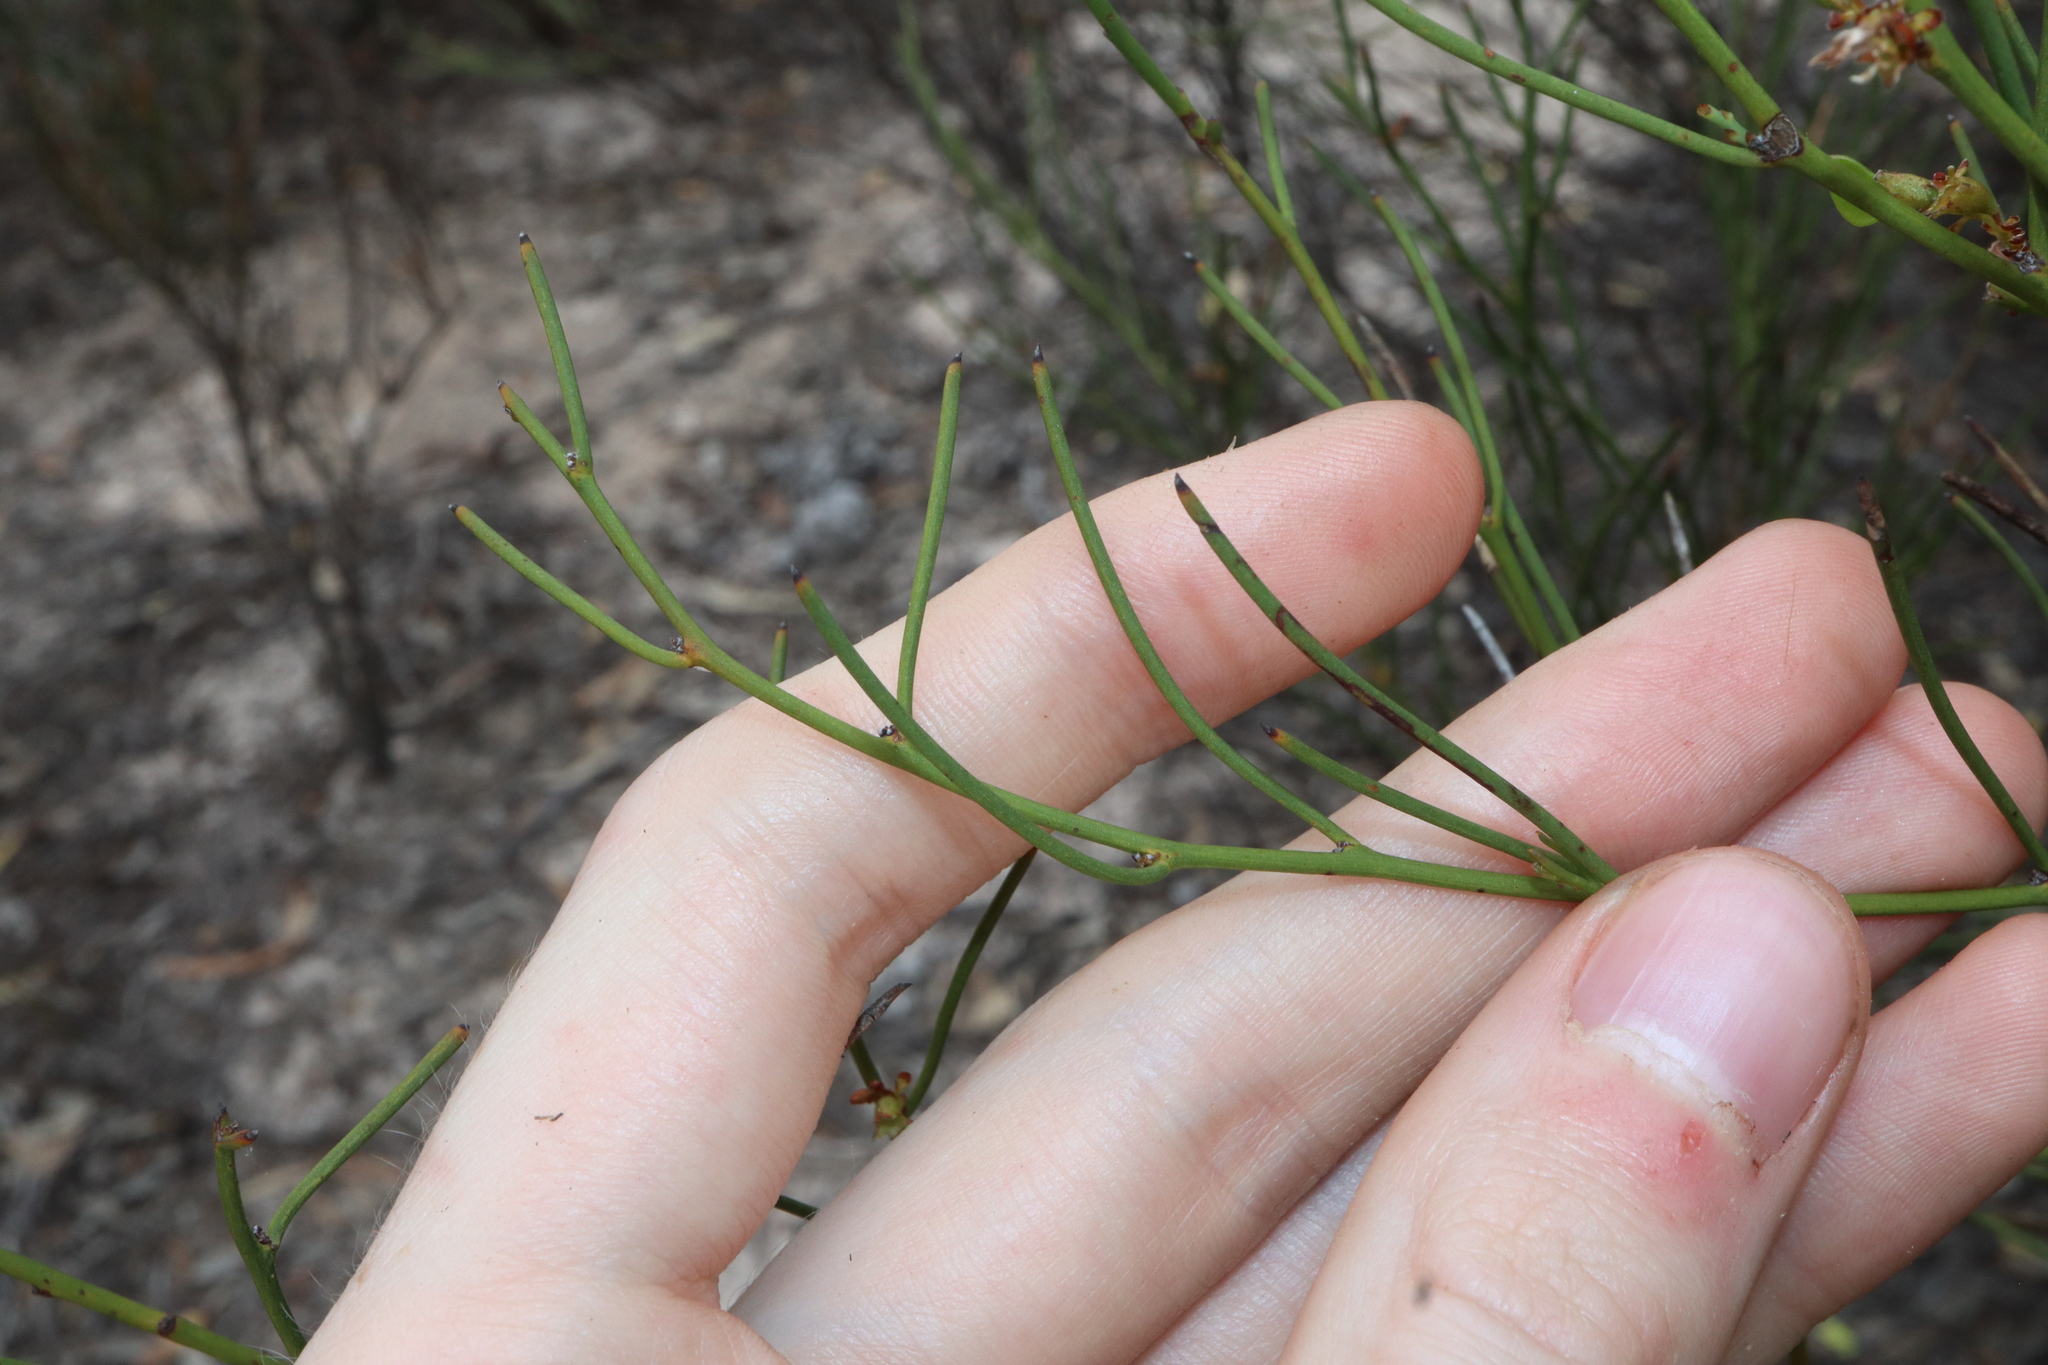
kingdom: Plantae
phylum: Tracheophyta
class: Magnoliopsida
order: Fabales
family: Fabaceae
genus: Daviesia
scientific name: Daviesia nematophylla
